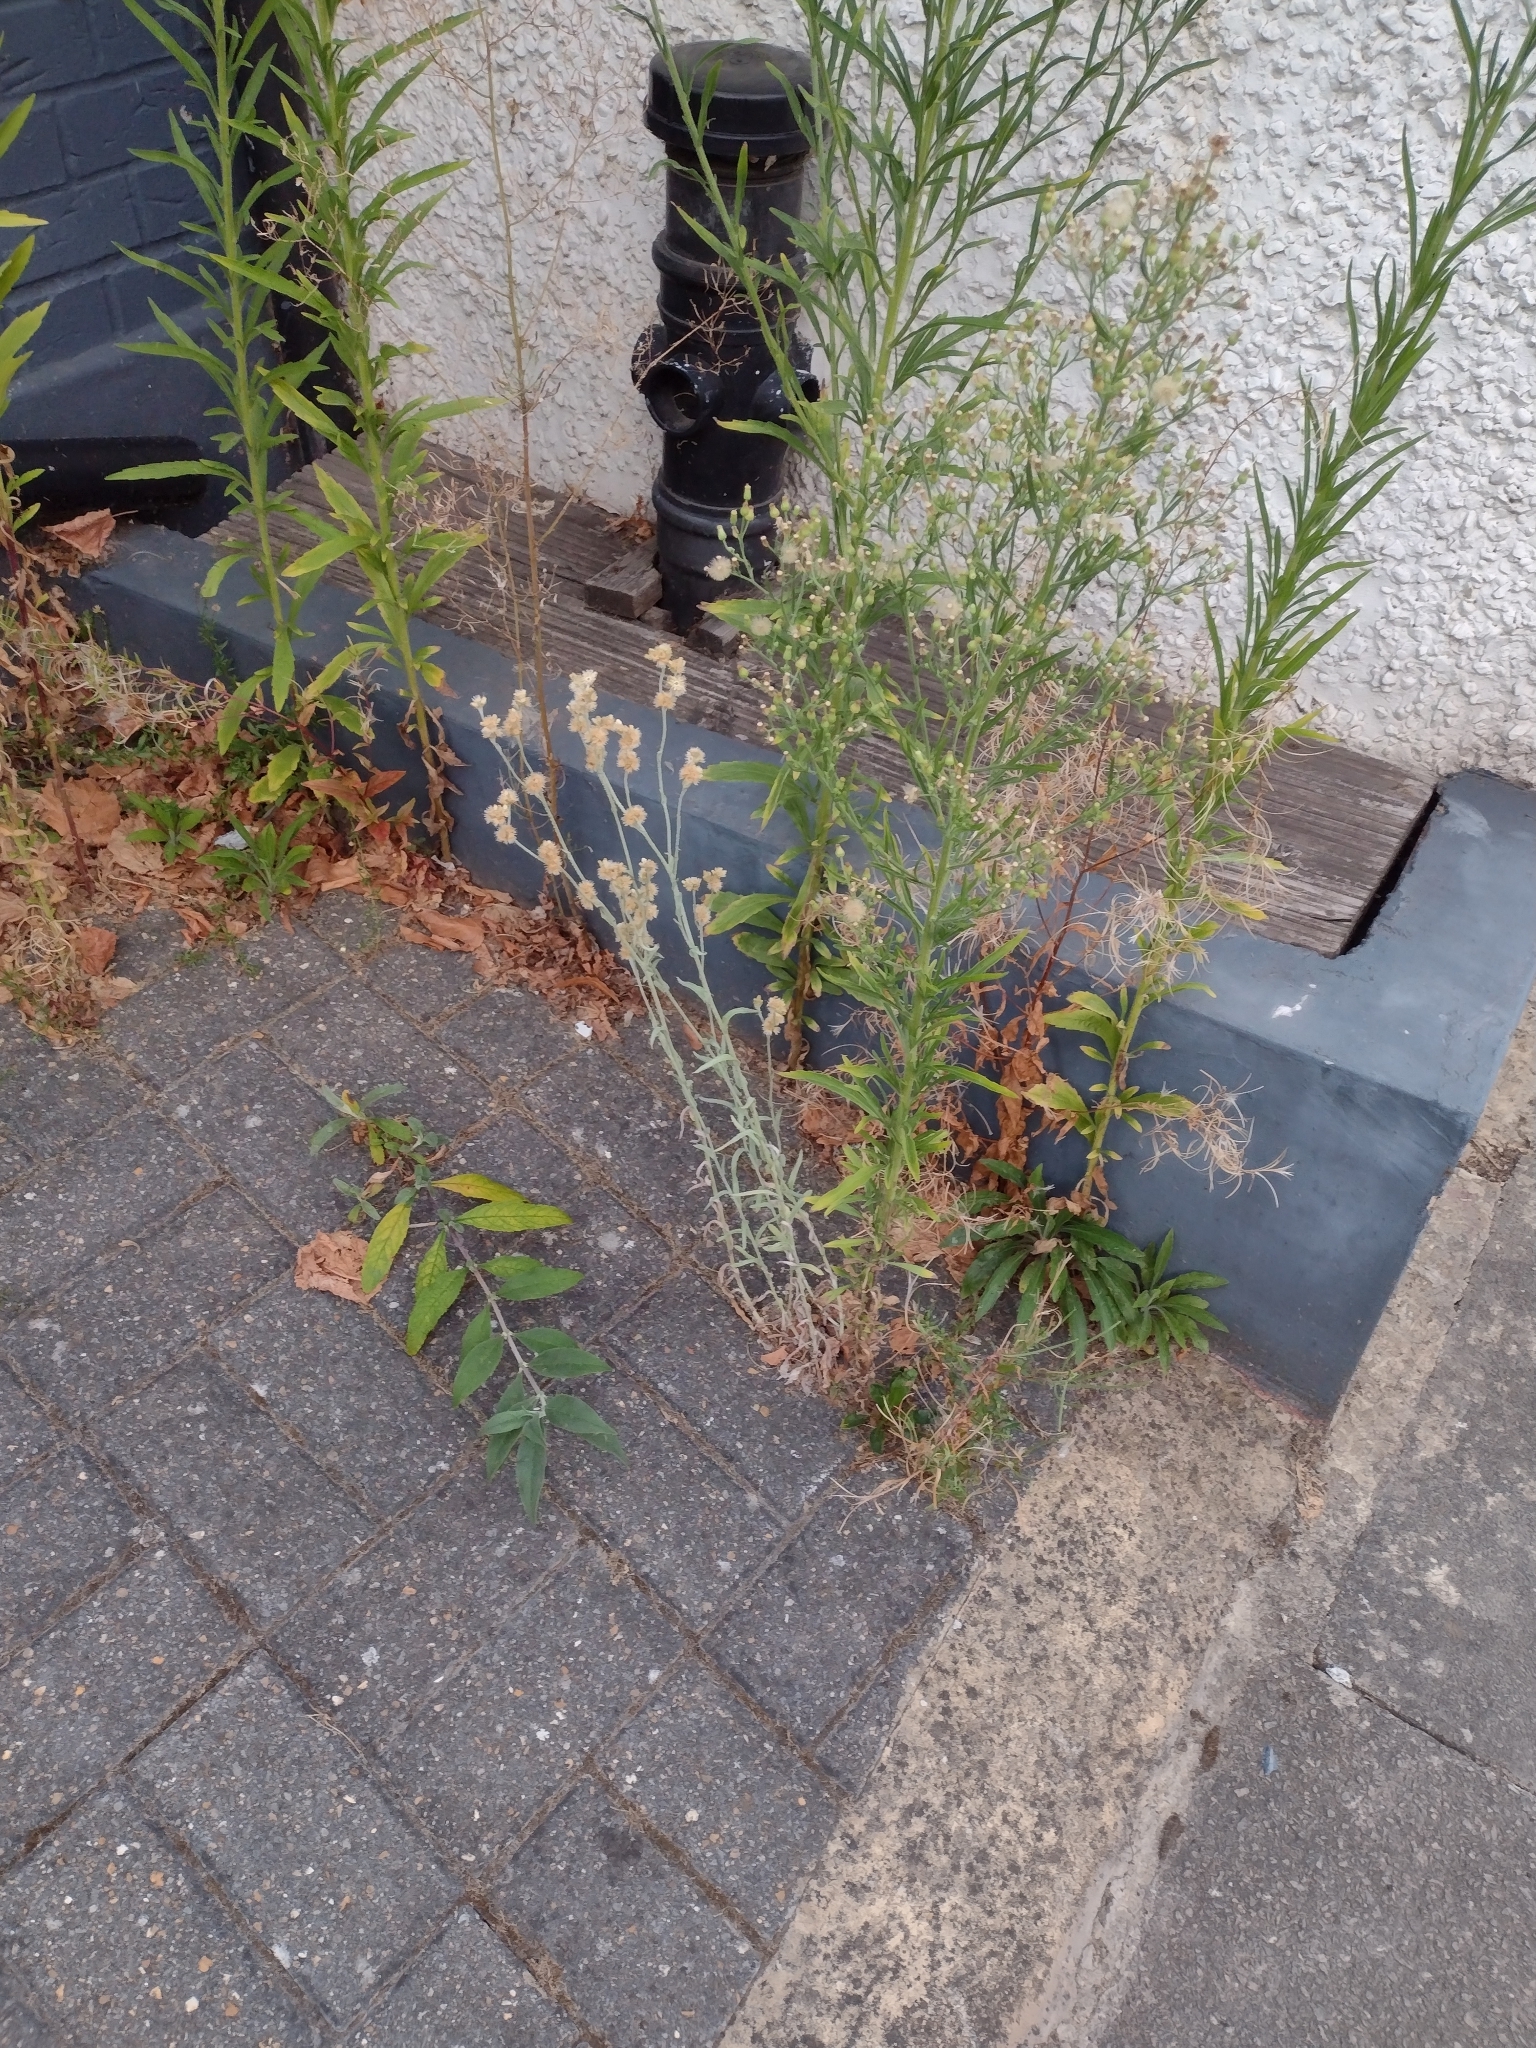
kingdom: Plantae
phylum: Tracheophyta
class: Magnoliopsida
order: Asterales
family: Asteraceae
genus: Helichrysum
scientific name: Helichrysum luteoalbum
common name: Daisy
